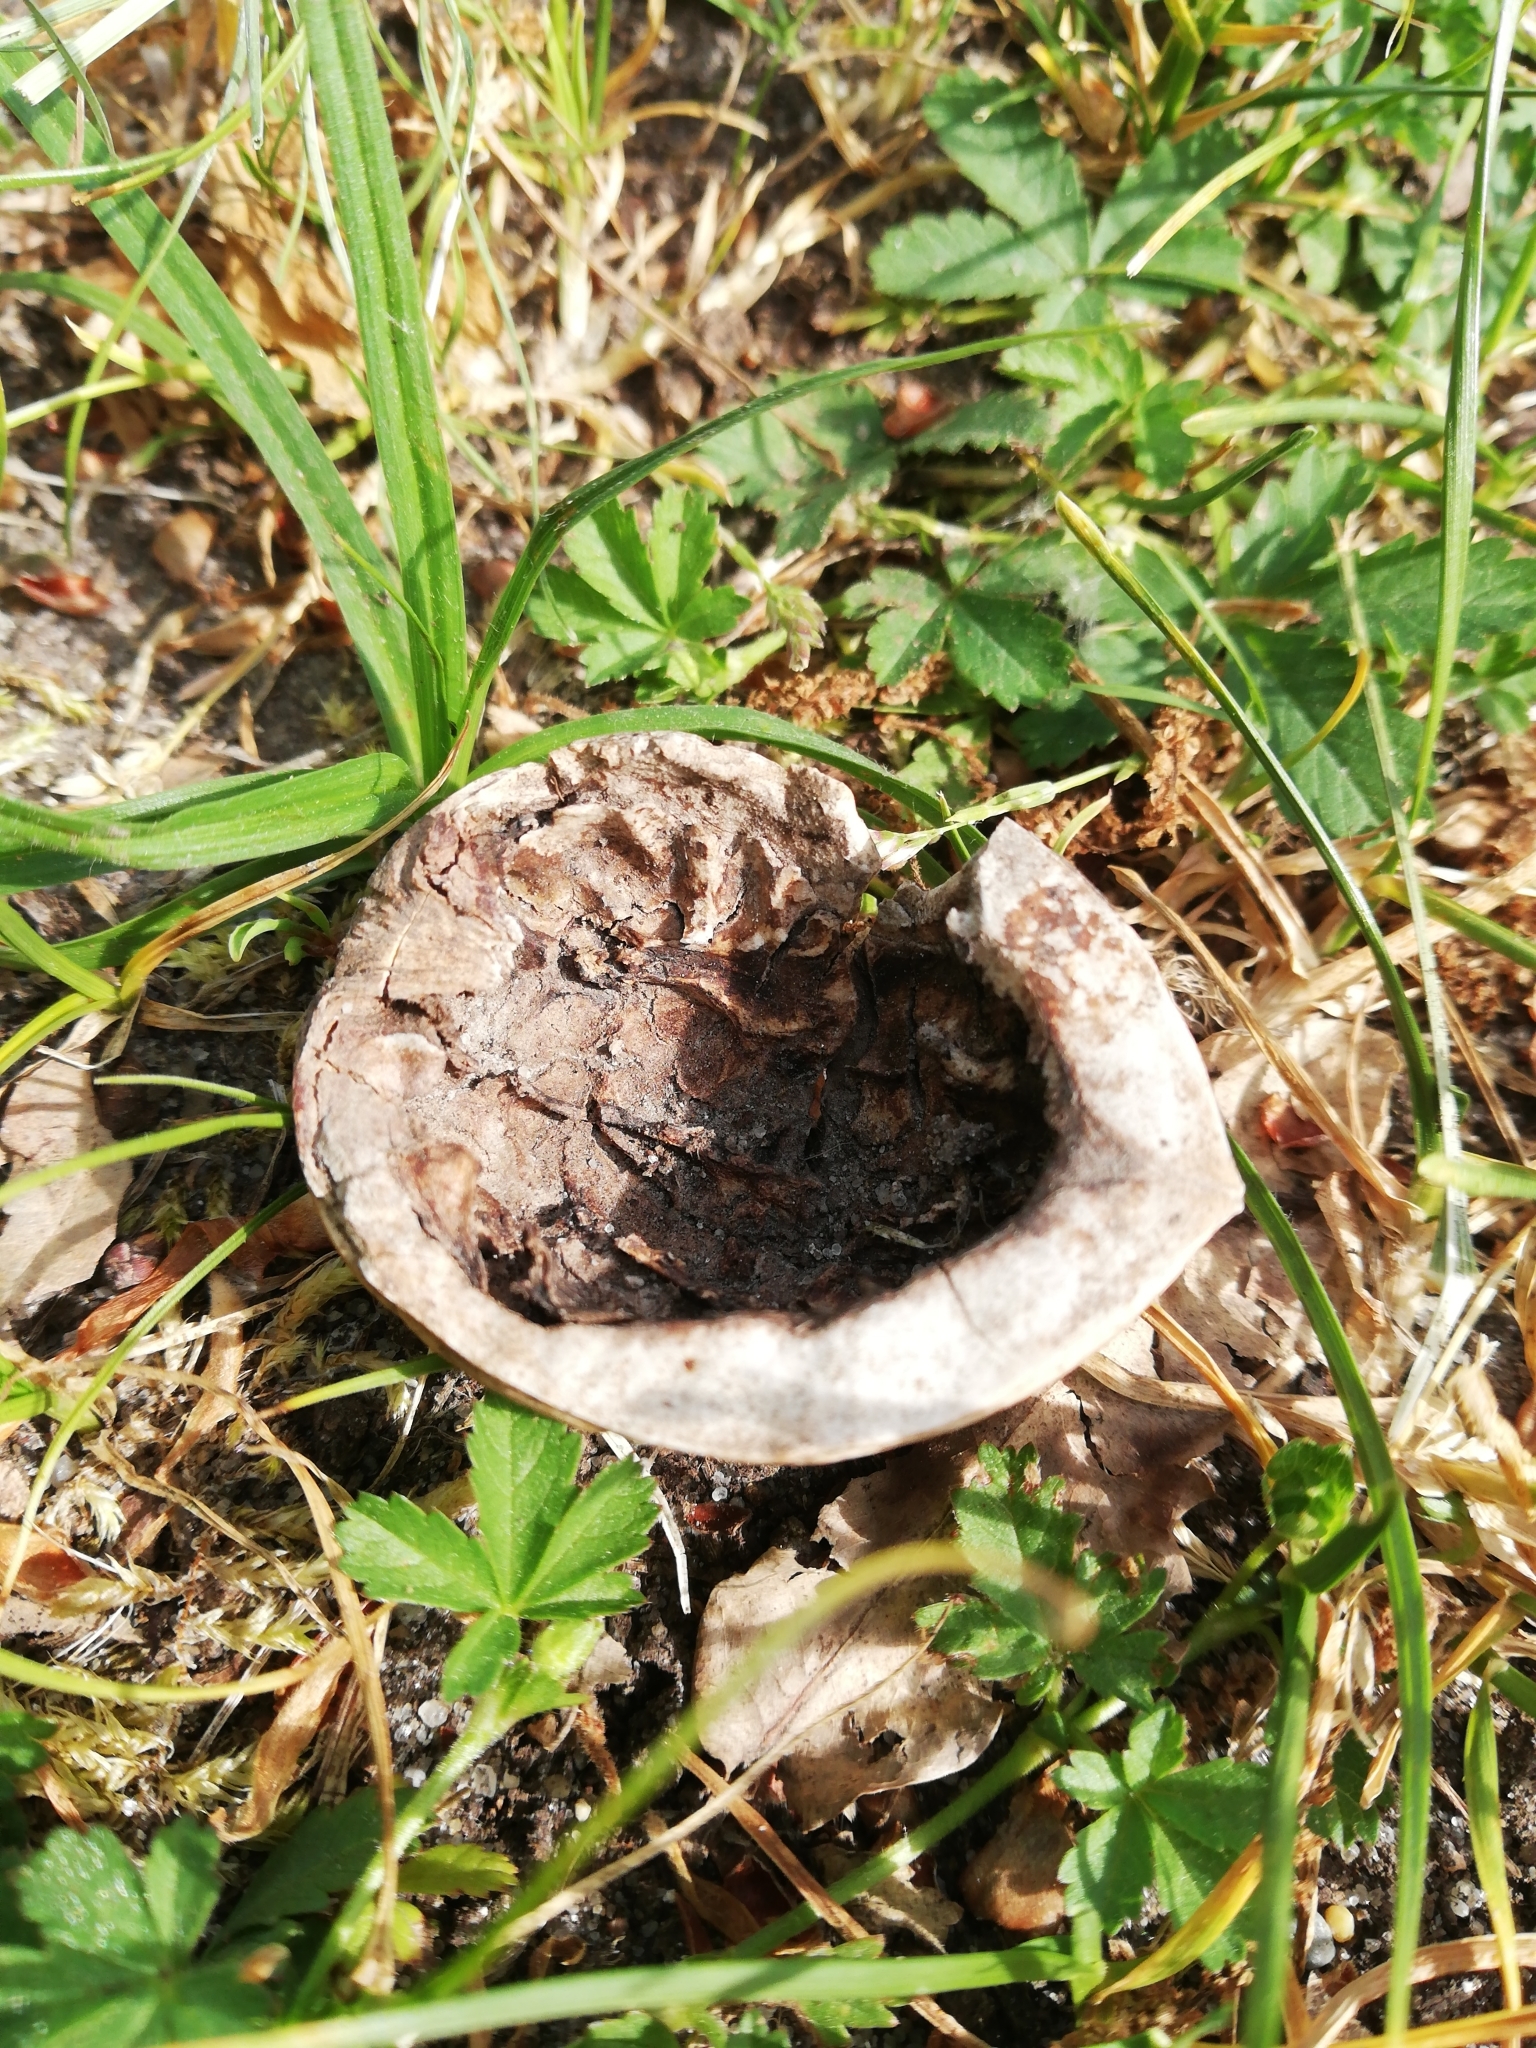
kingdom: Plantae
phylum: Tracheophyta
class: Magnoliopsida
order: Fagales
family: Juglandaceae
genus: Juglans
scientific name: Juglans regia
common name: Walnut
